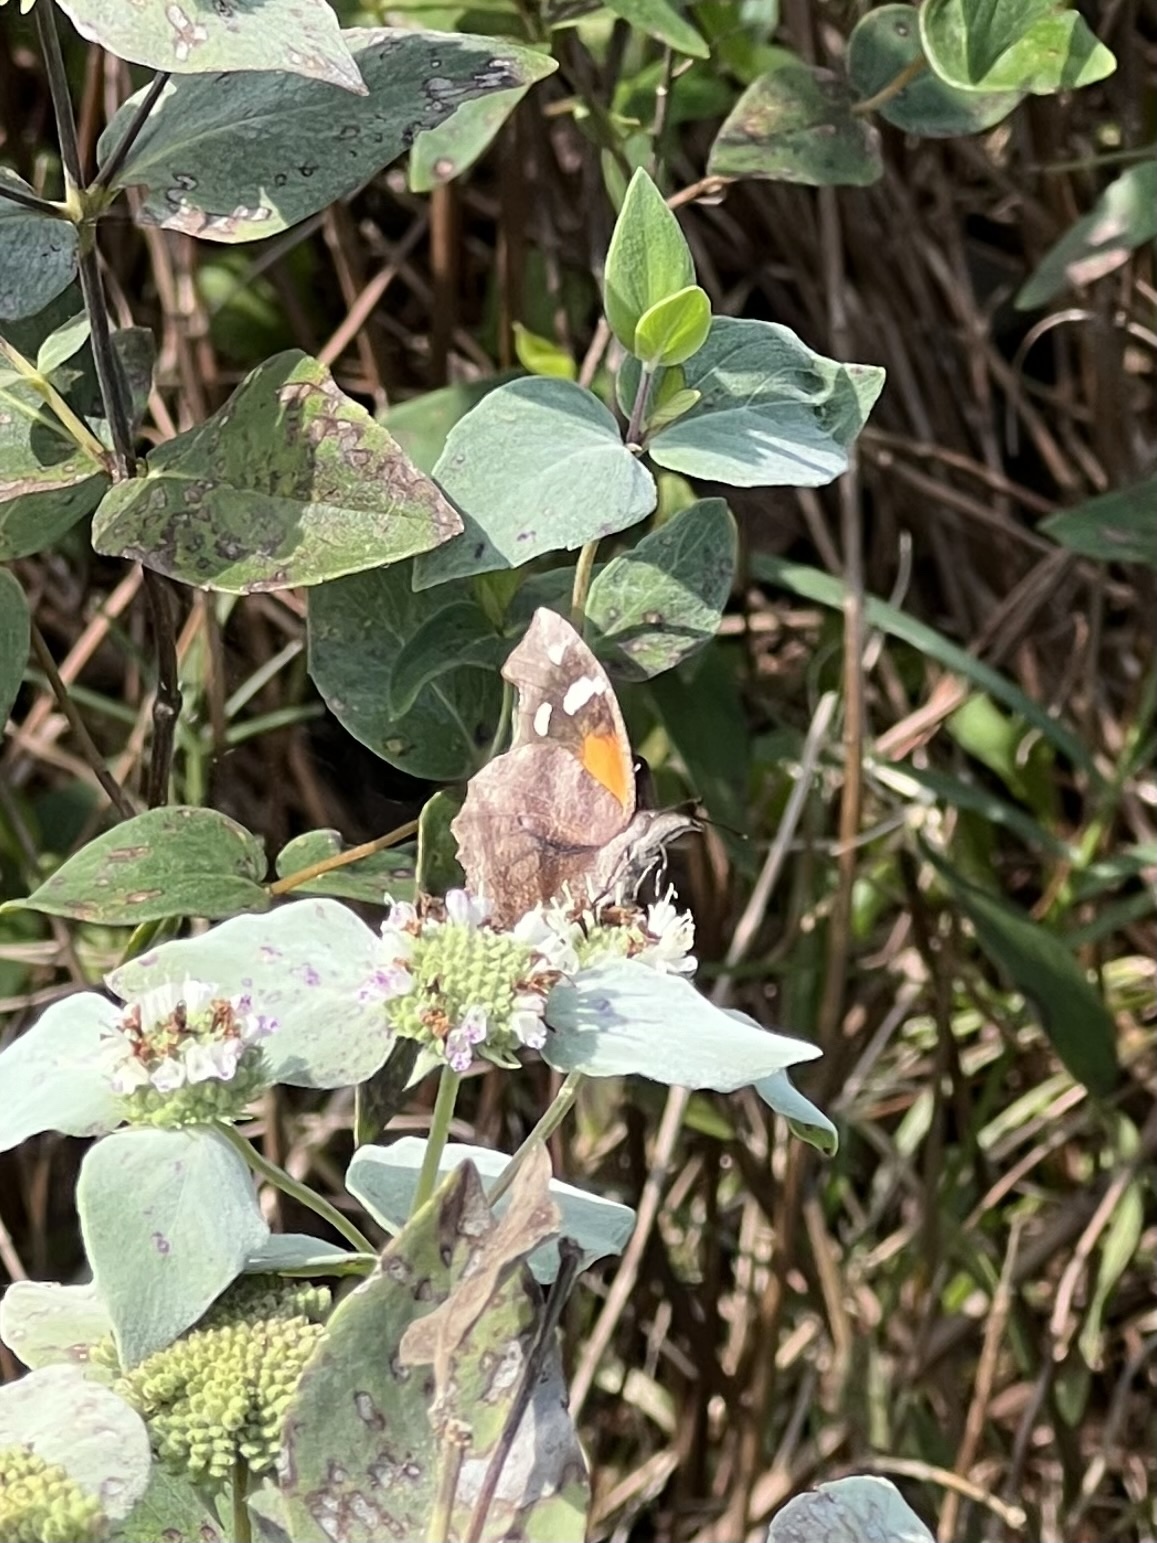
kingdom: Animalia
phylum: Arthropoda
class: Insecta
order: Lepidoptera
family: Nymphalidae
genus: Libytheana
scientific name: Libytheana carinenta
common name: American snout
